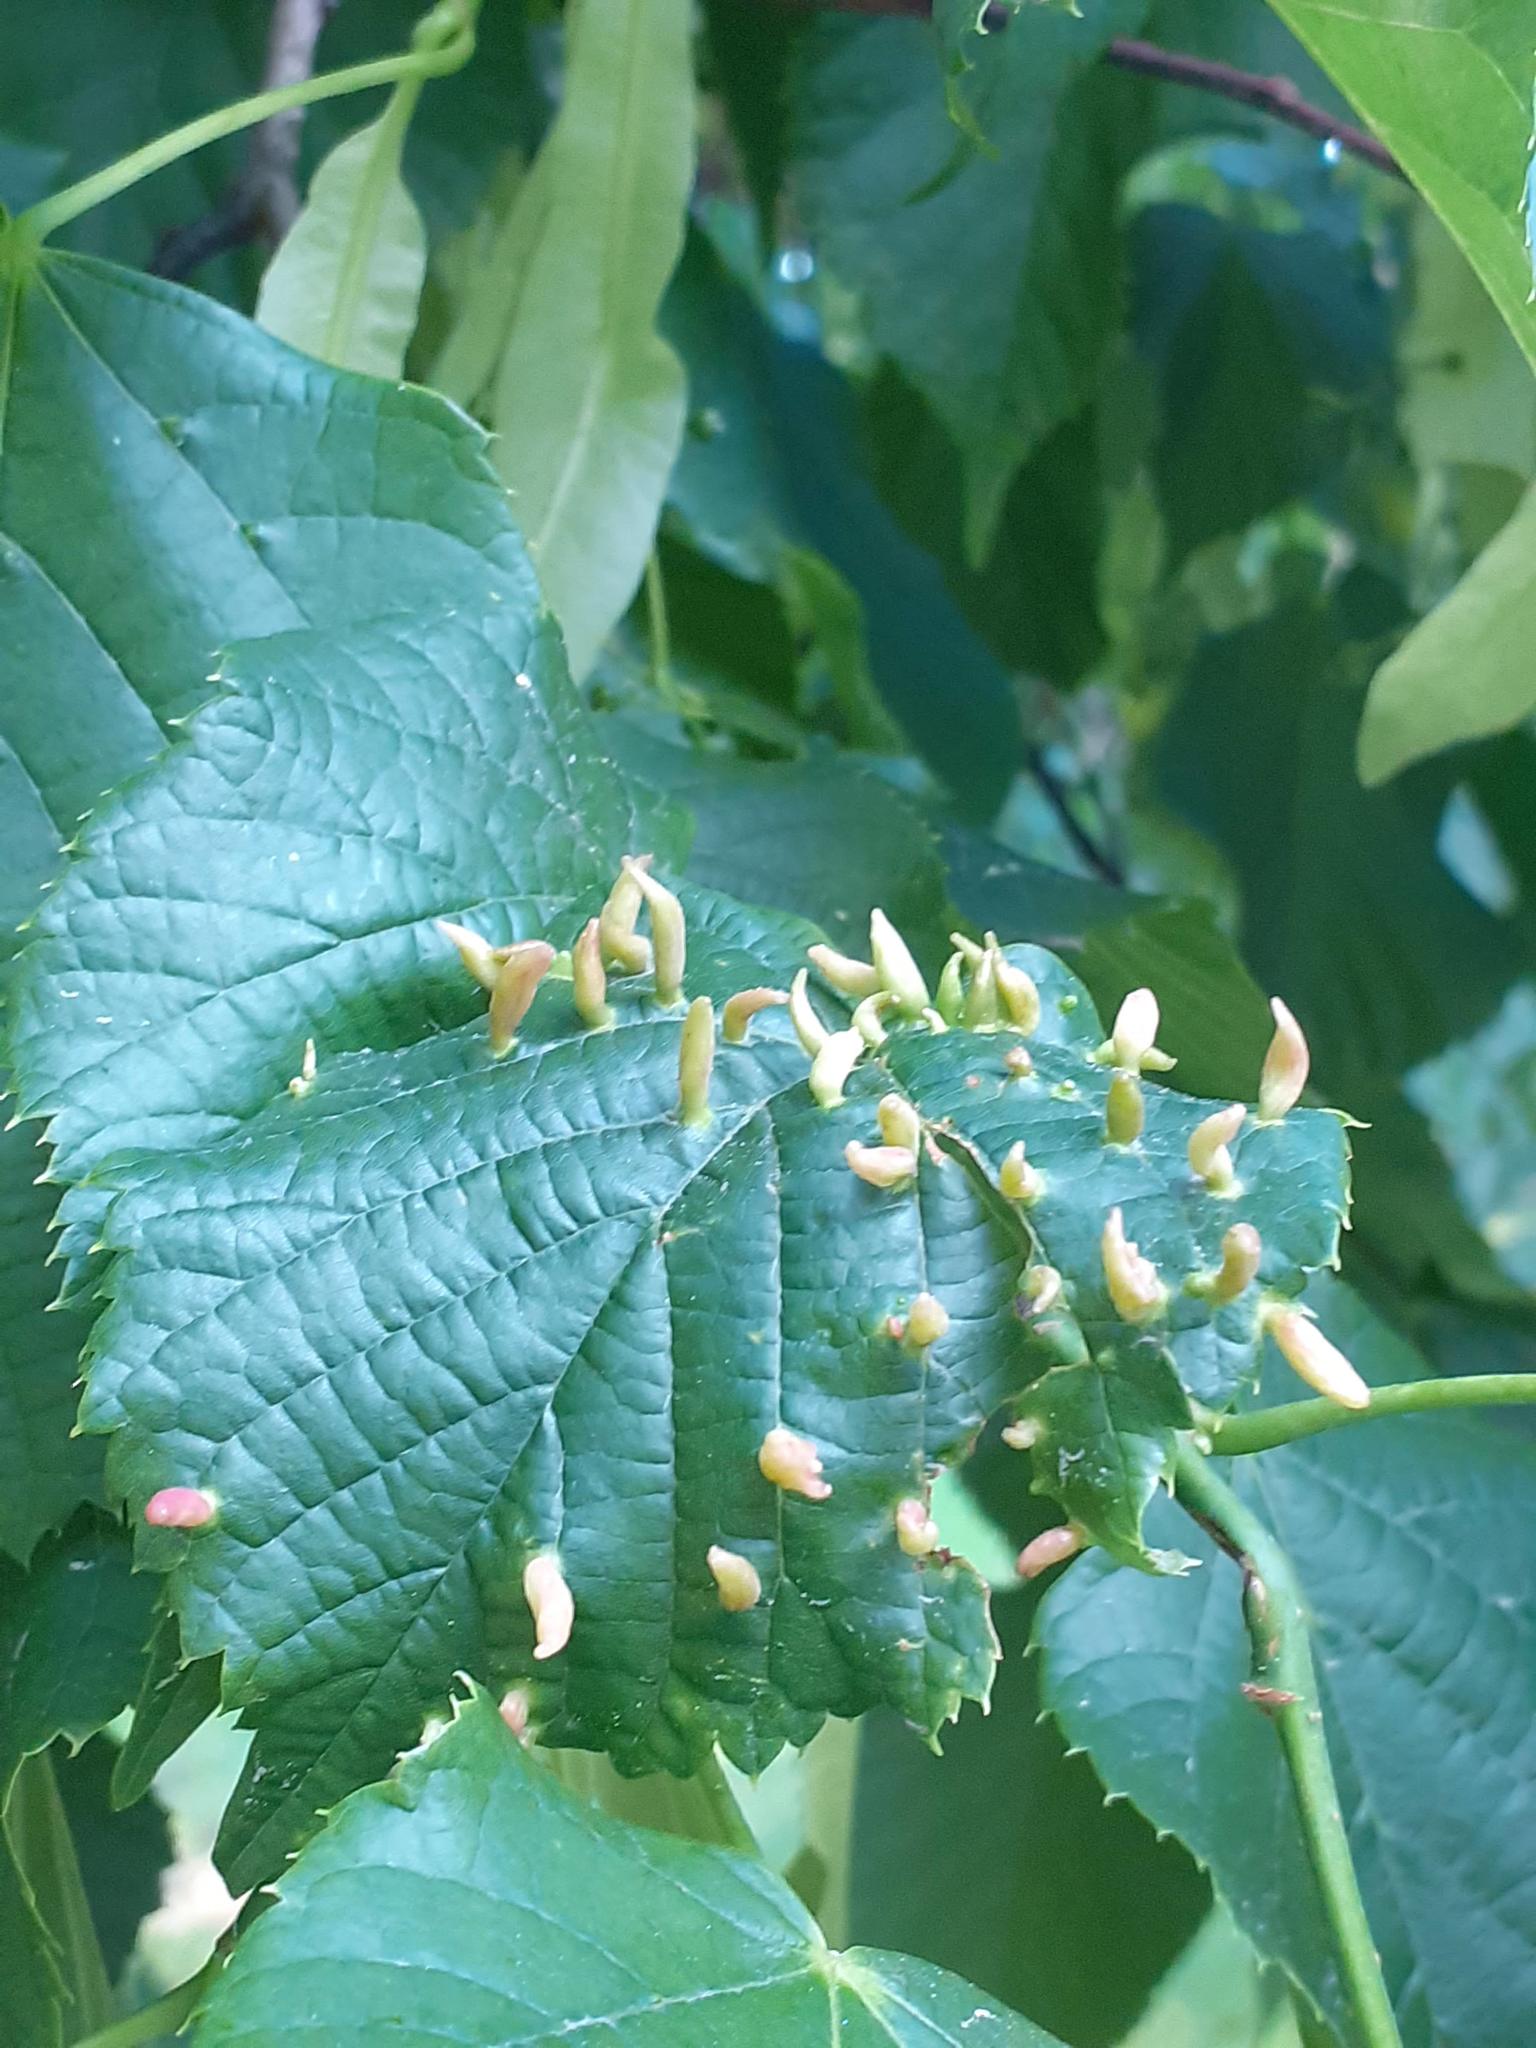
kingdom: Animalia
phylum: Arthropoda
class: Arachnida
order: Trombidiformes
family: Eriophyidae
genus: Eriophyes
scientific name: Eriophyes tiliae
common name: Red nail gall mite
